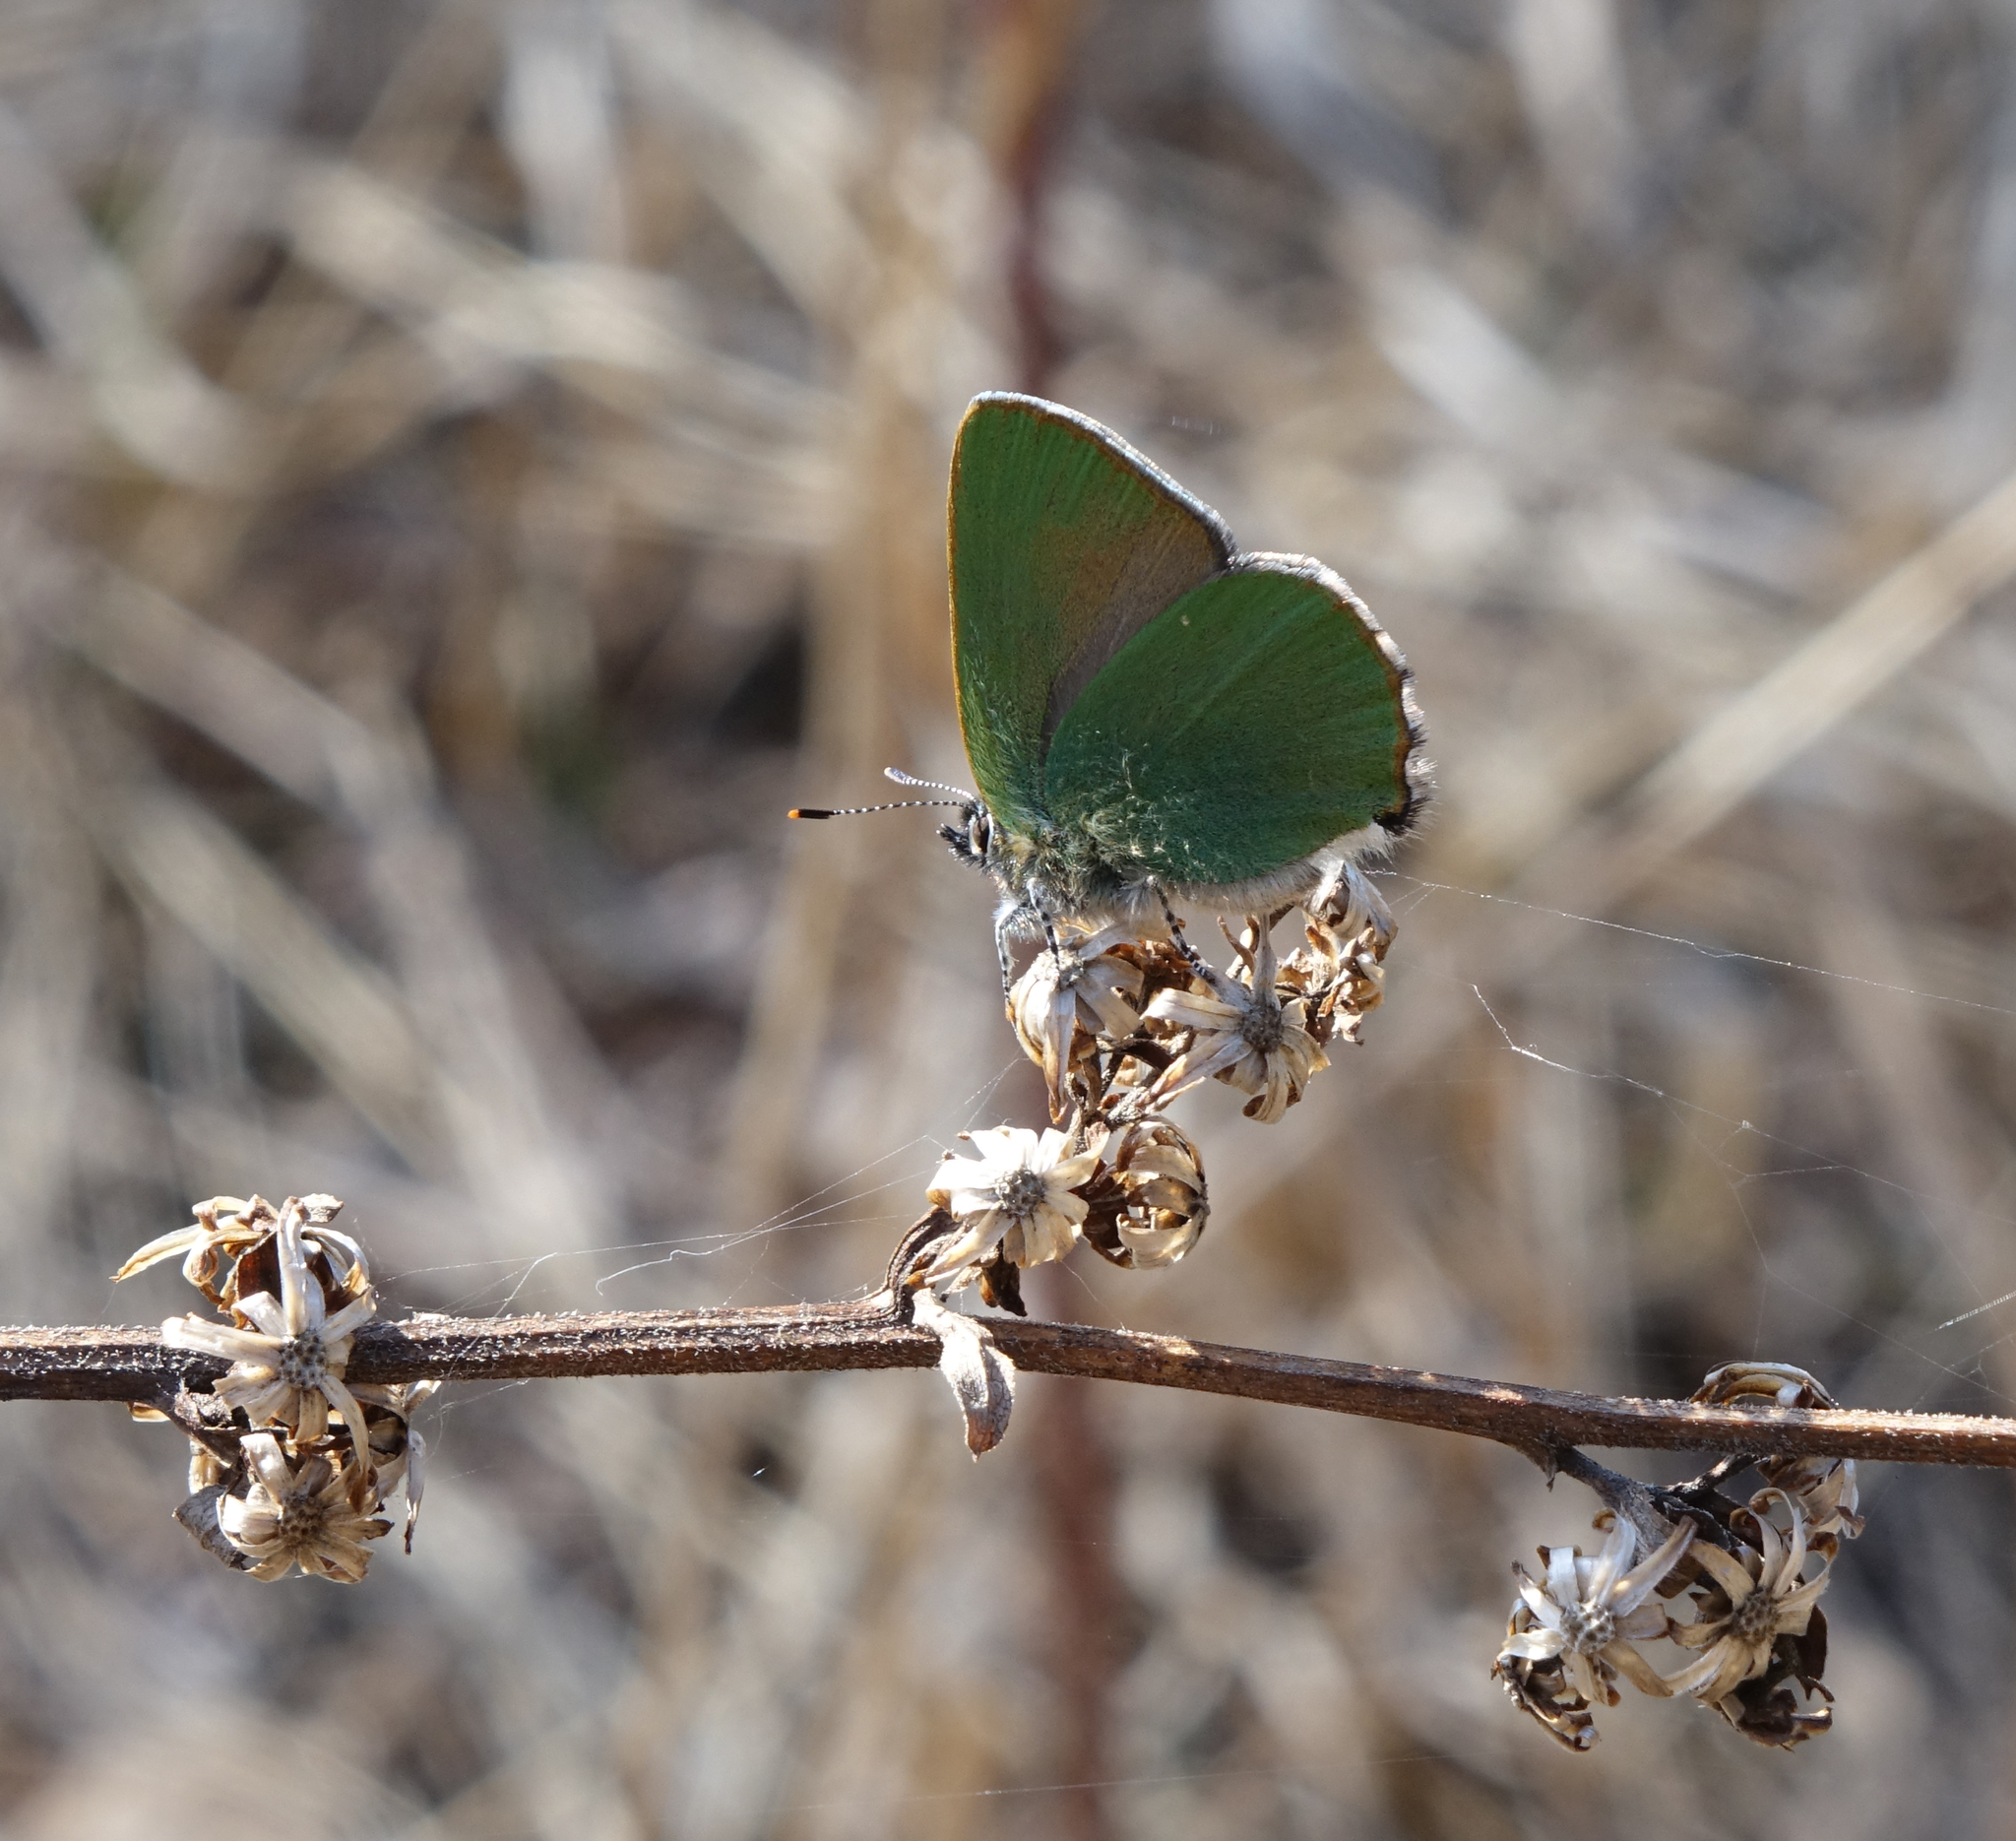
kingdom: Animalia
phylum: Arthropoda
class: Insecta
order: Lepidoptera
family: Lycaenidae
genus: Callophrys
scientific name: Callophrys rubi
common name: Green hairstreak
